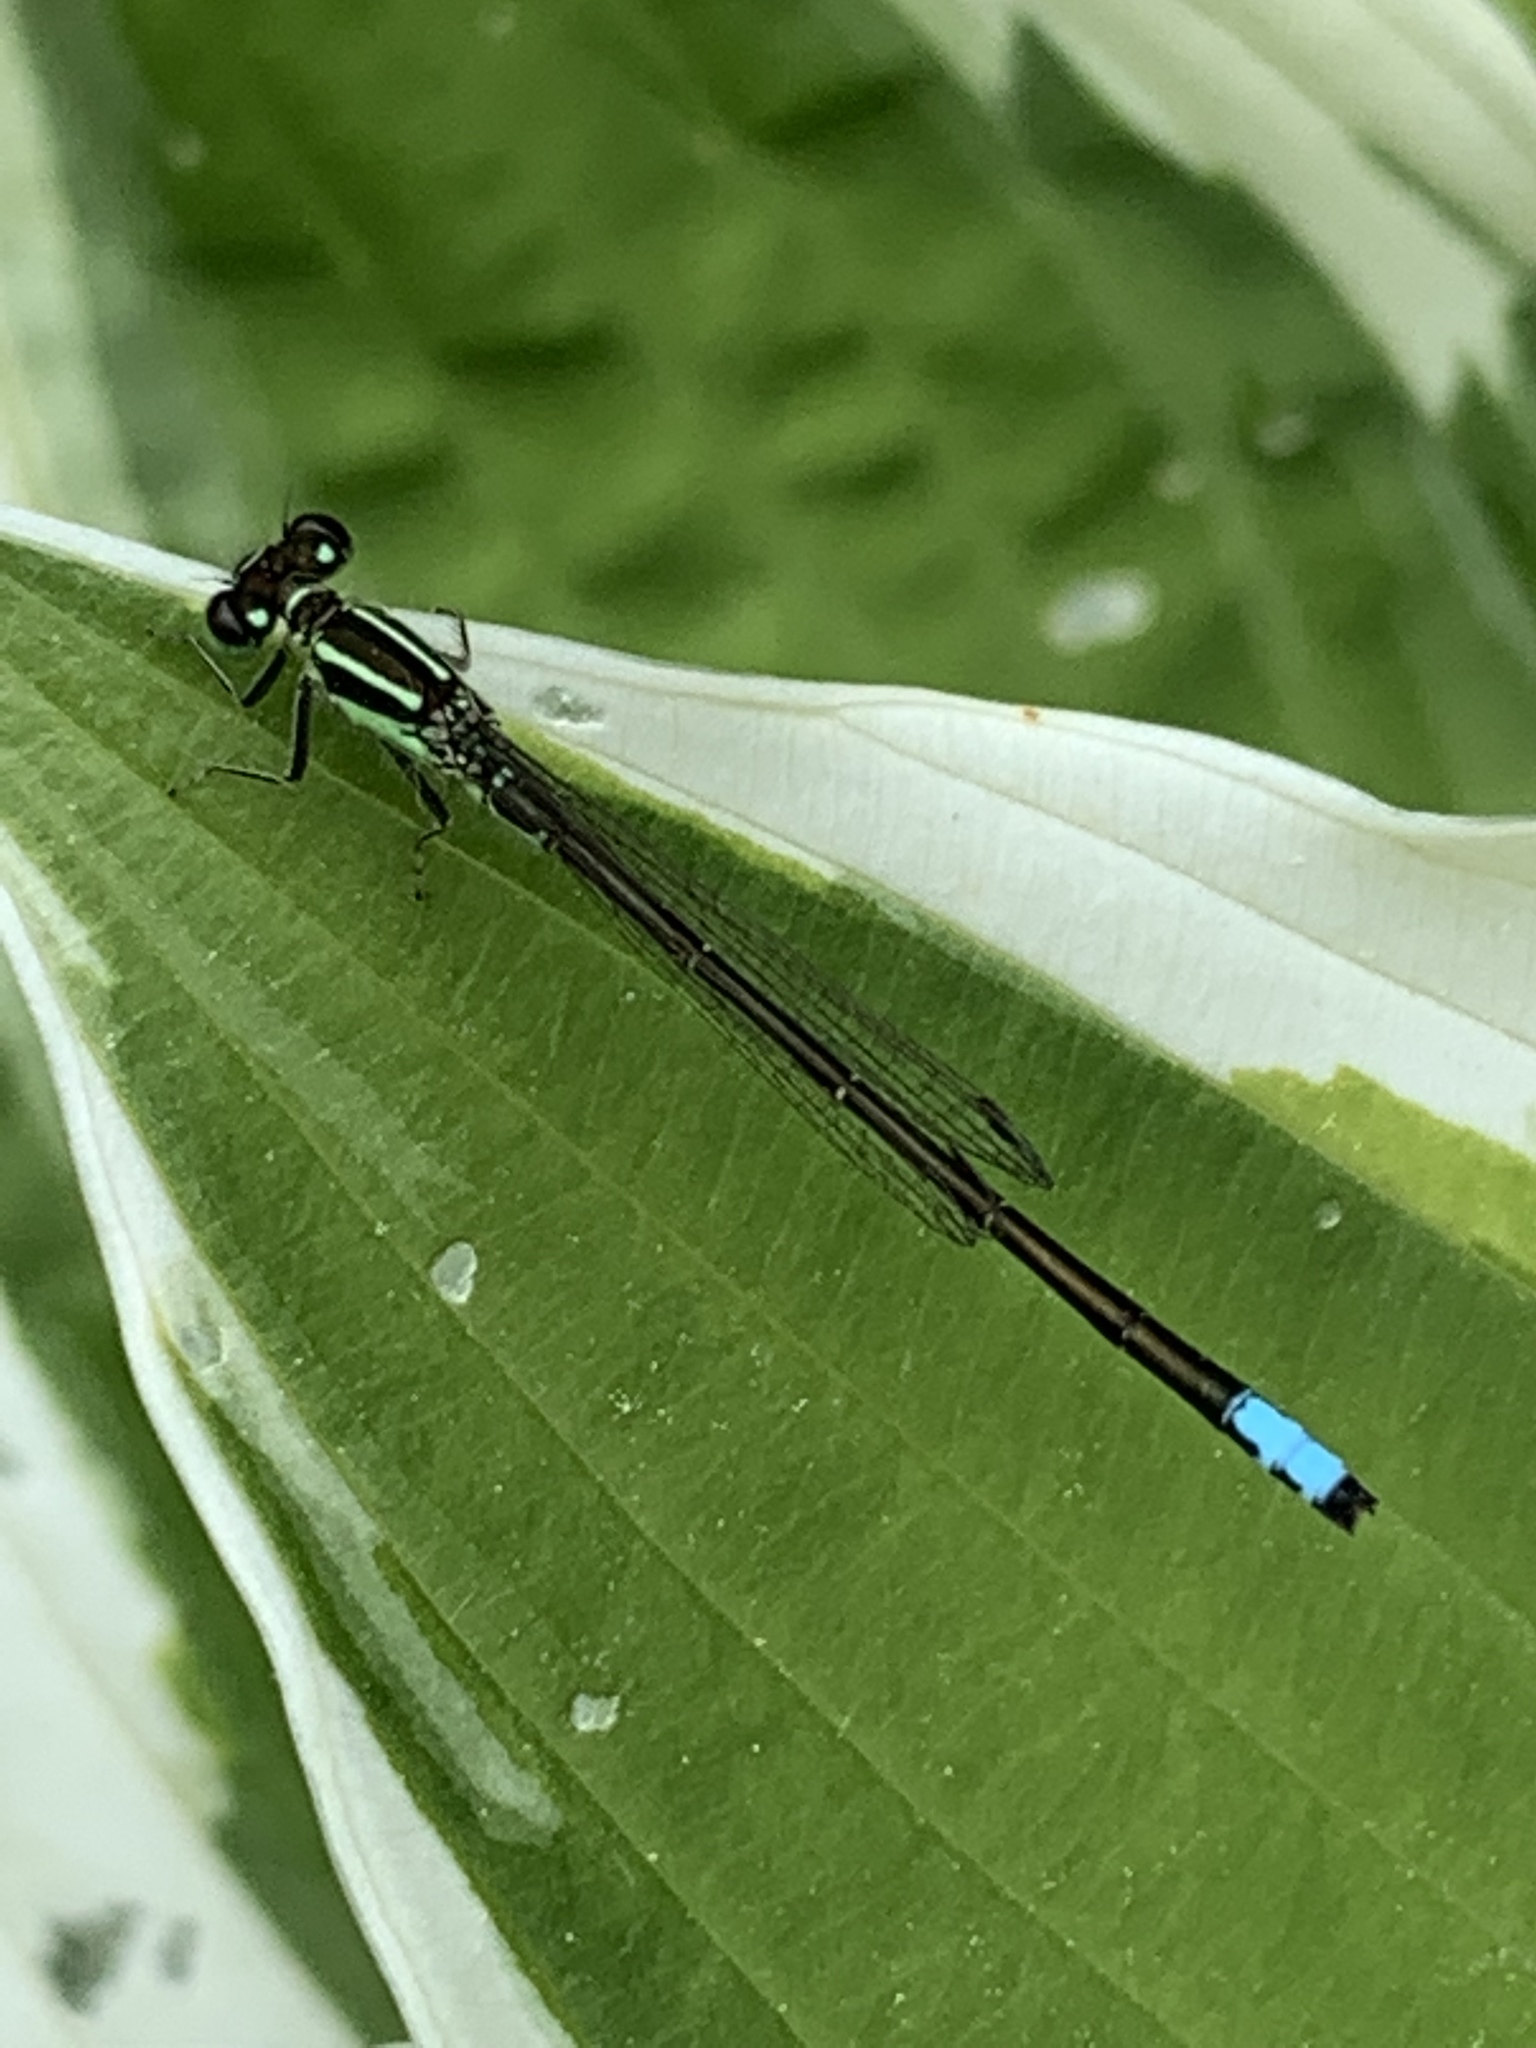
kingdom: Animalia
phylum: Arthropoda
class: Insecta
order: Odonata
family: Coenagrionidae
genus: Ischnura
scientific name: Ischnura verticalis
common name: Eastern forktail
